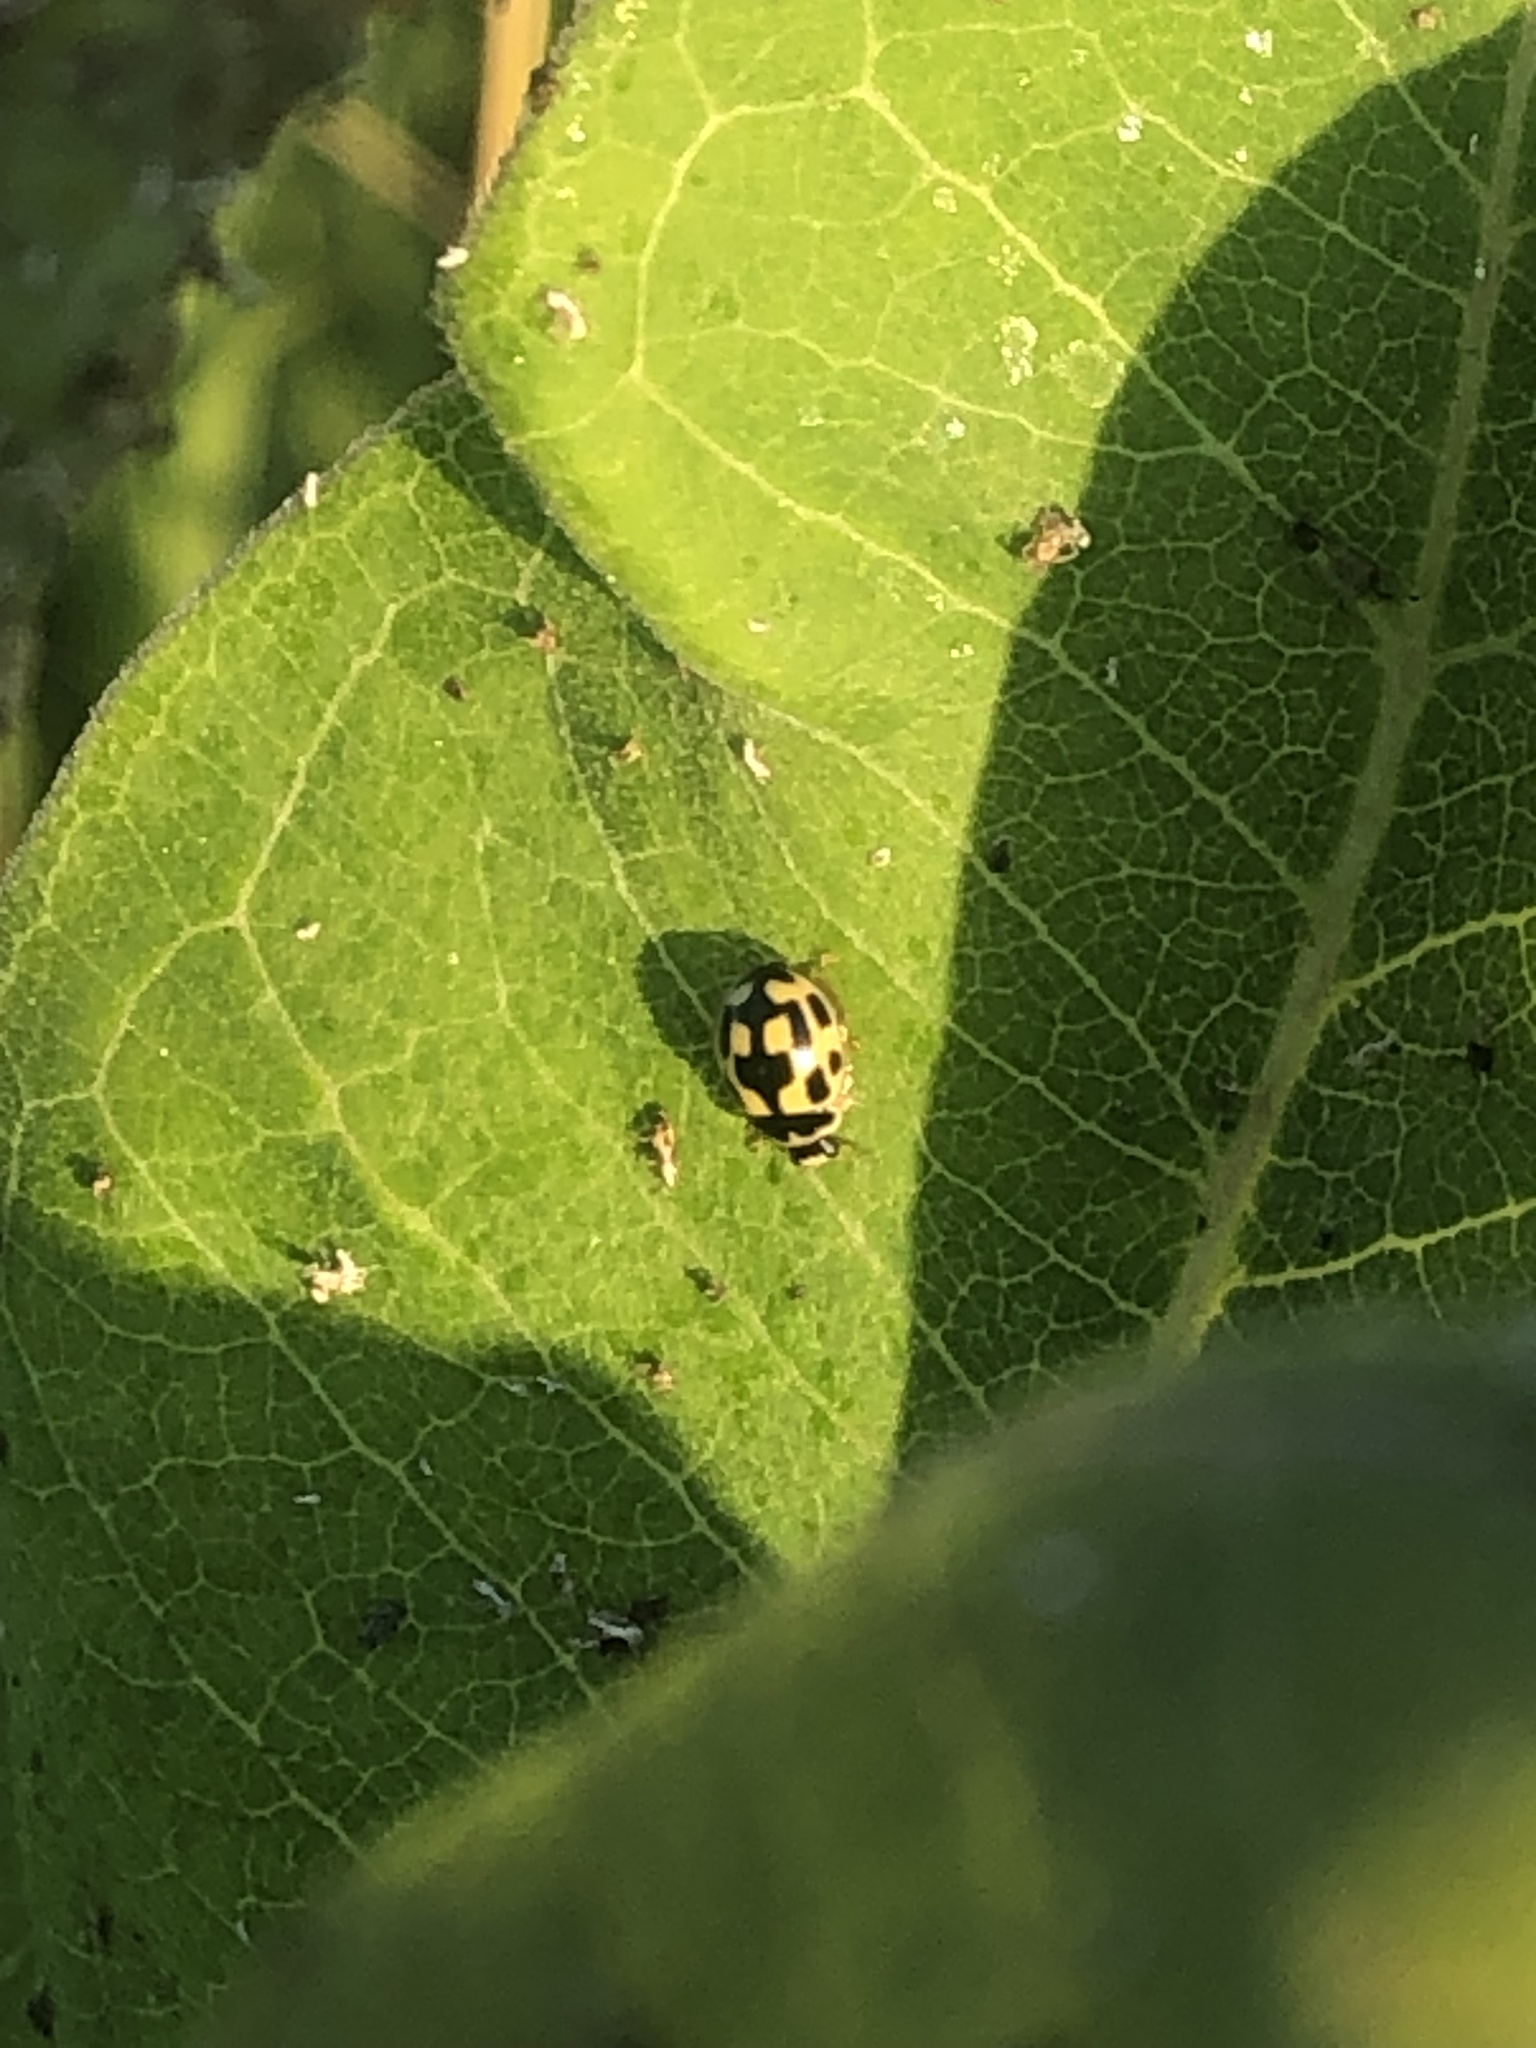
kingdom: Animalia
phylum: Arthropoda
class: Insecta
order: Coleoptera
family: Coccinellidae
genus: Propylaea
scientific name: Propylaea quatuordecimpunctata
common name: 14-spotted ladybird beetle
